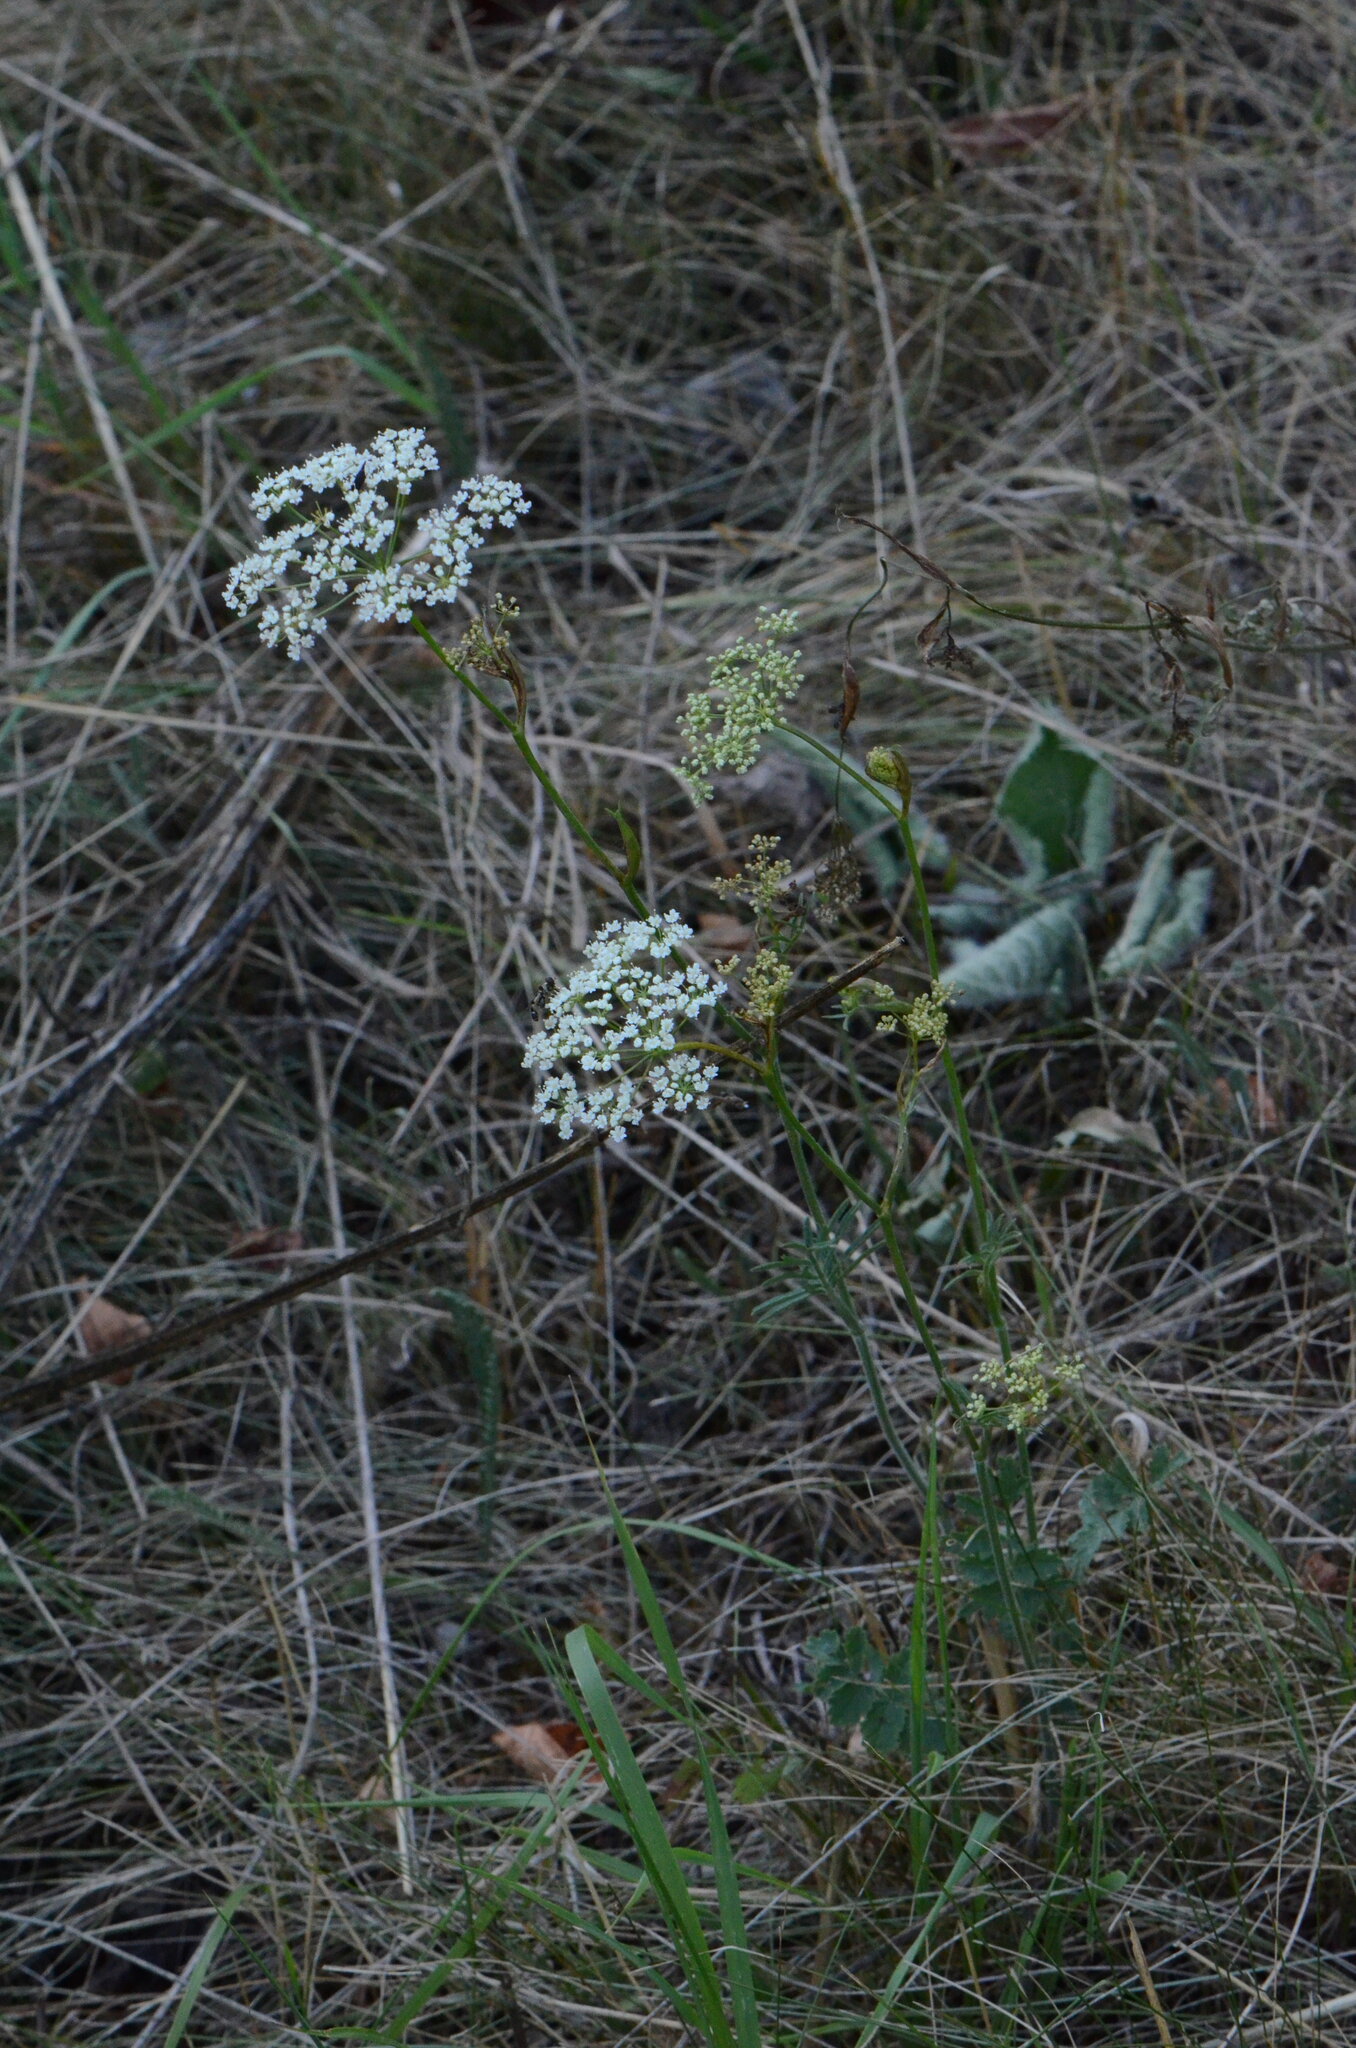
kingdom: Plantae
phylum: Tracheophyta
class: Magnoliopsida
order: Apiales
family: Apiaceae
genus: Pimpinella
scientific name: Pimpinella saxifraga
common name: Burnet-saxifrage
